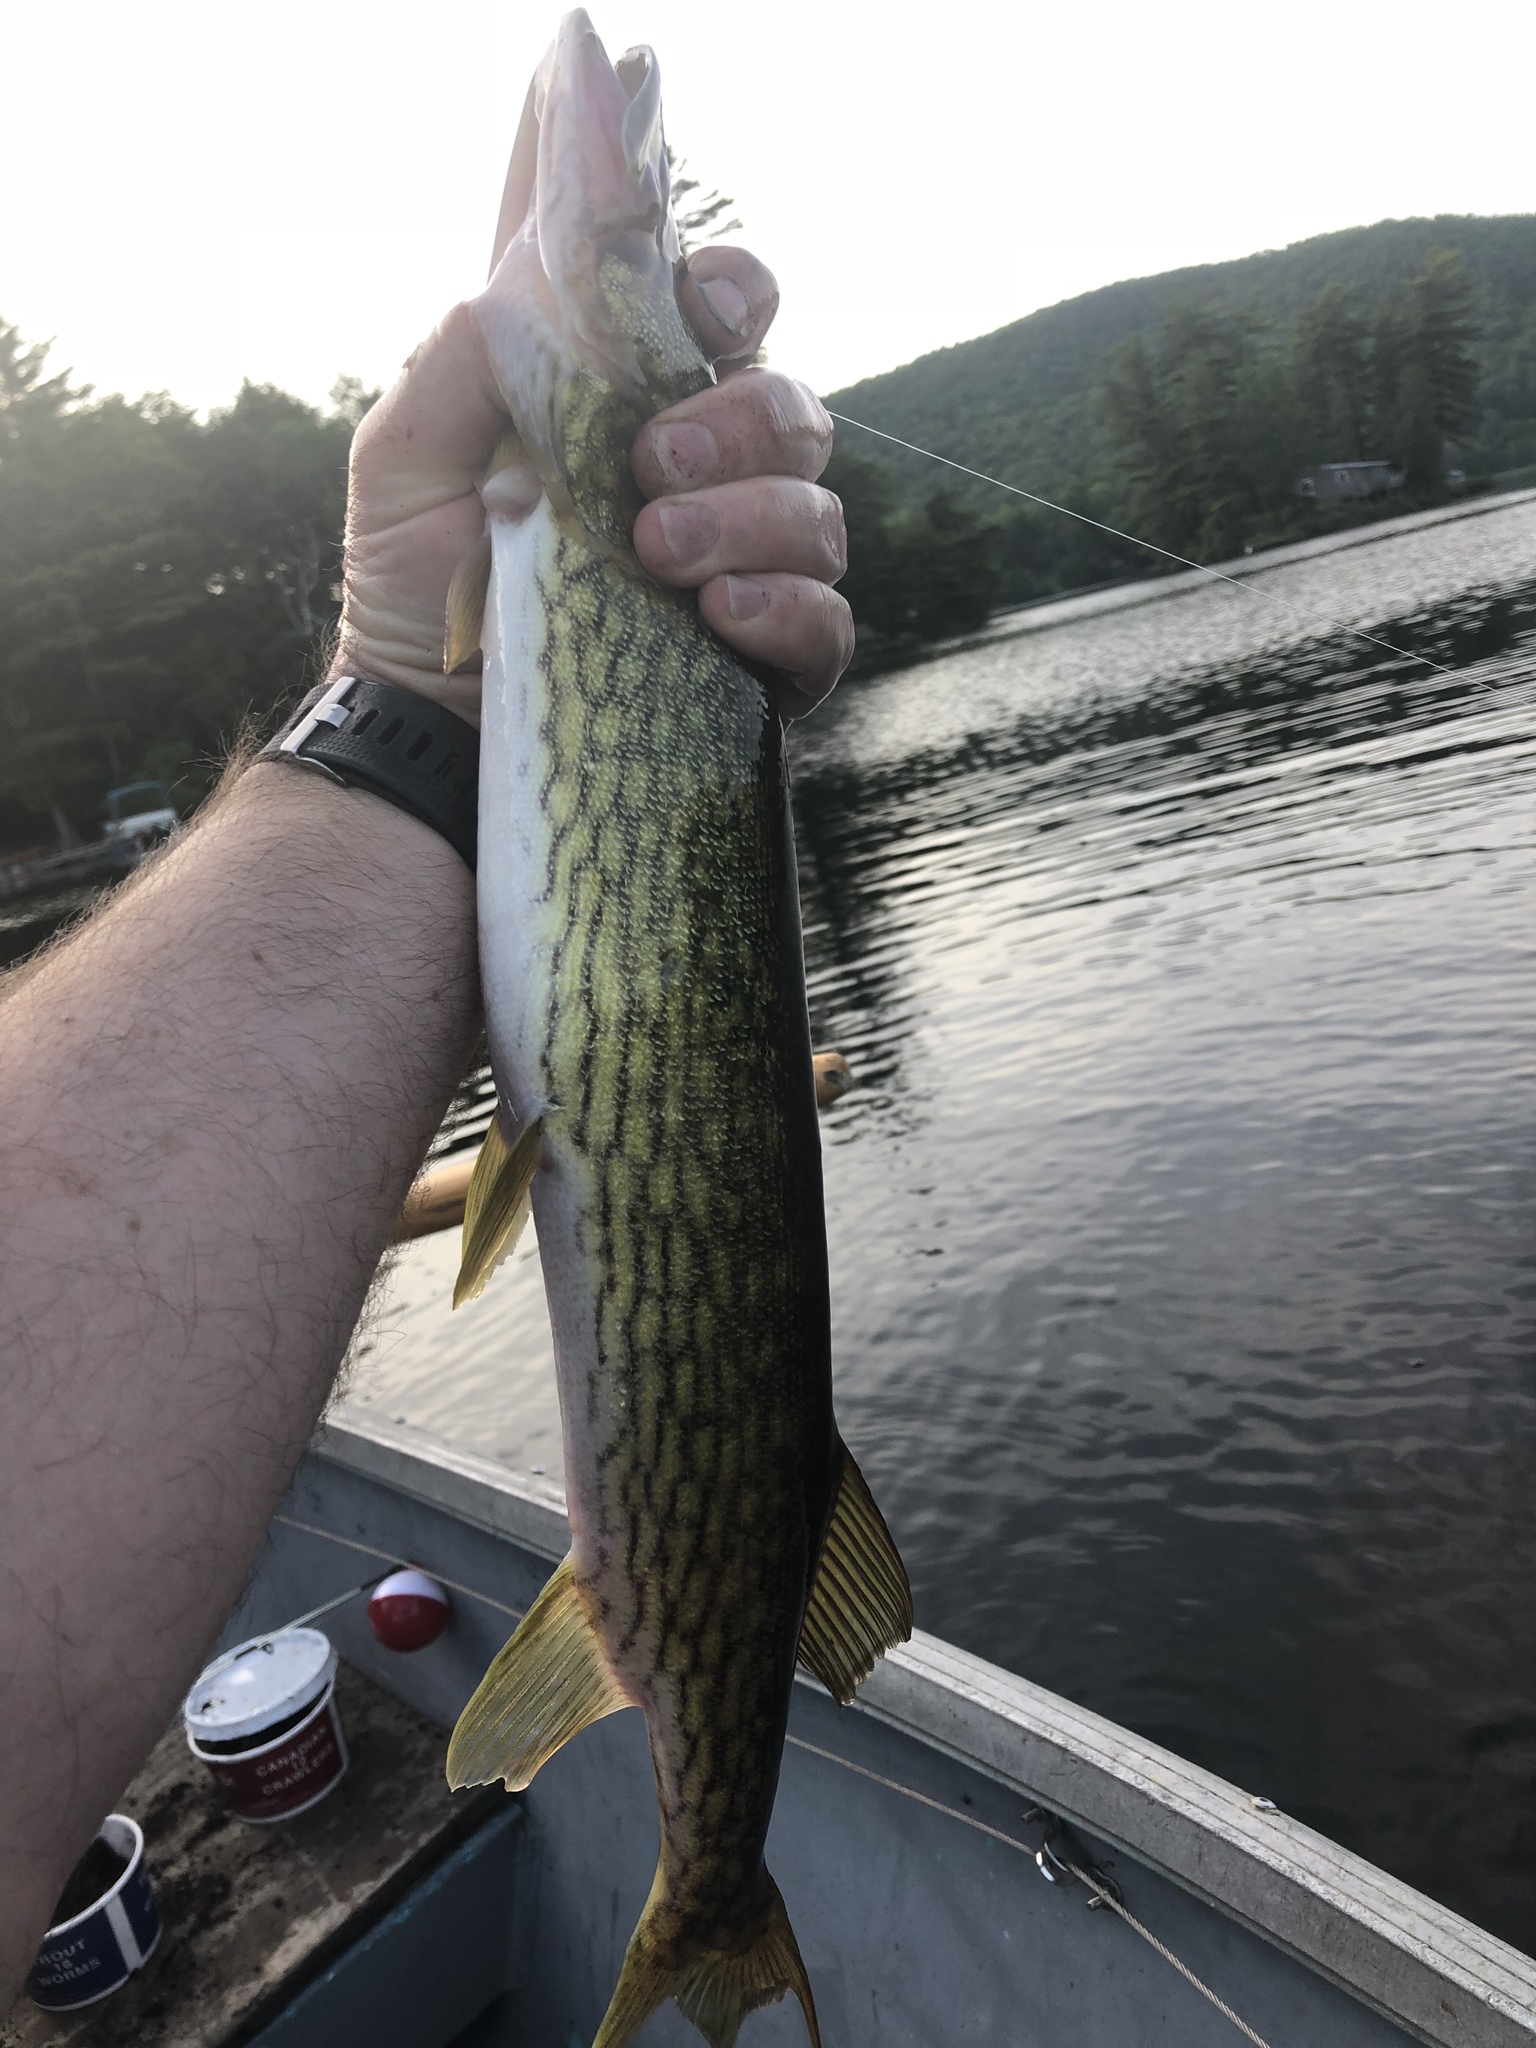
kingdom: Animalia
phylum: Chordata
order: Esociformes
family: Esocidae
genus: Esox
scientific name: Esox niger
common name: Chain pickerel
